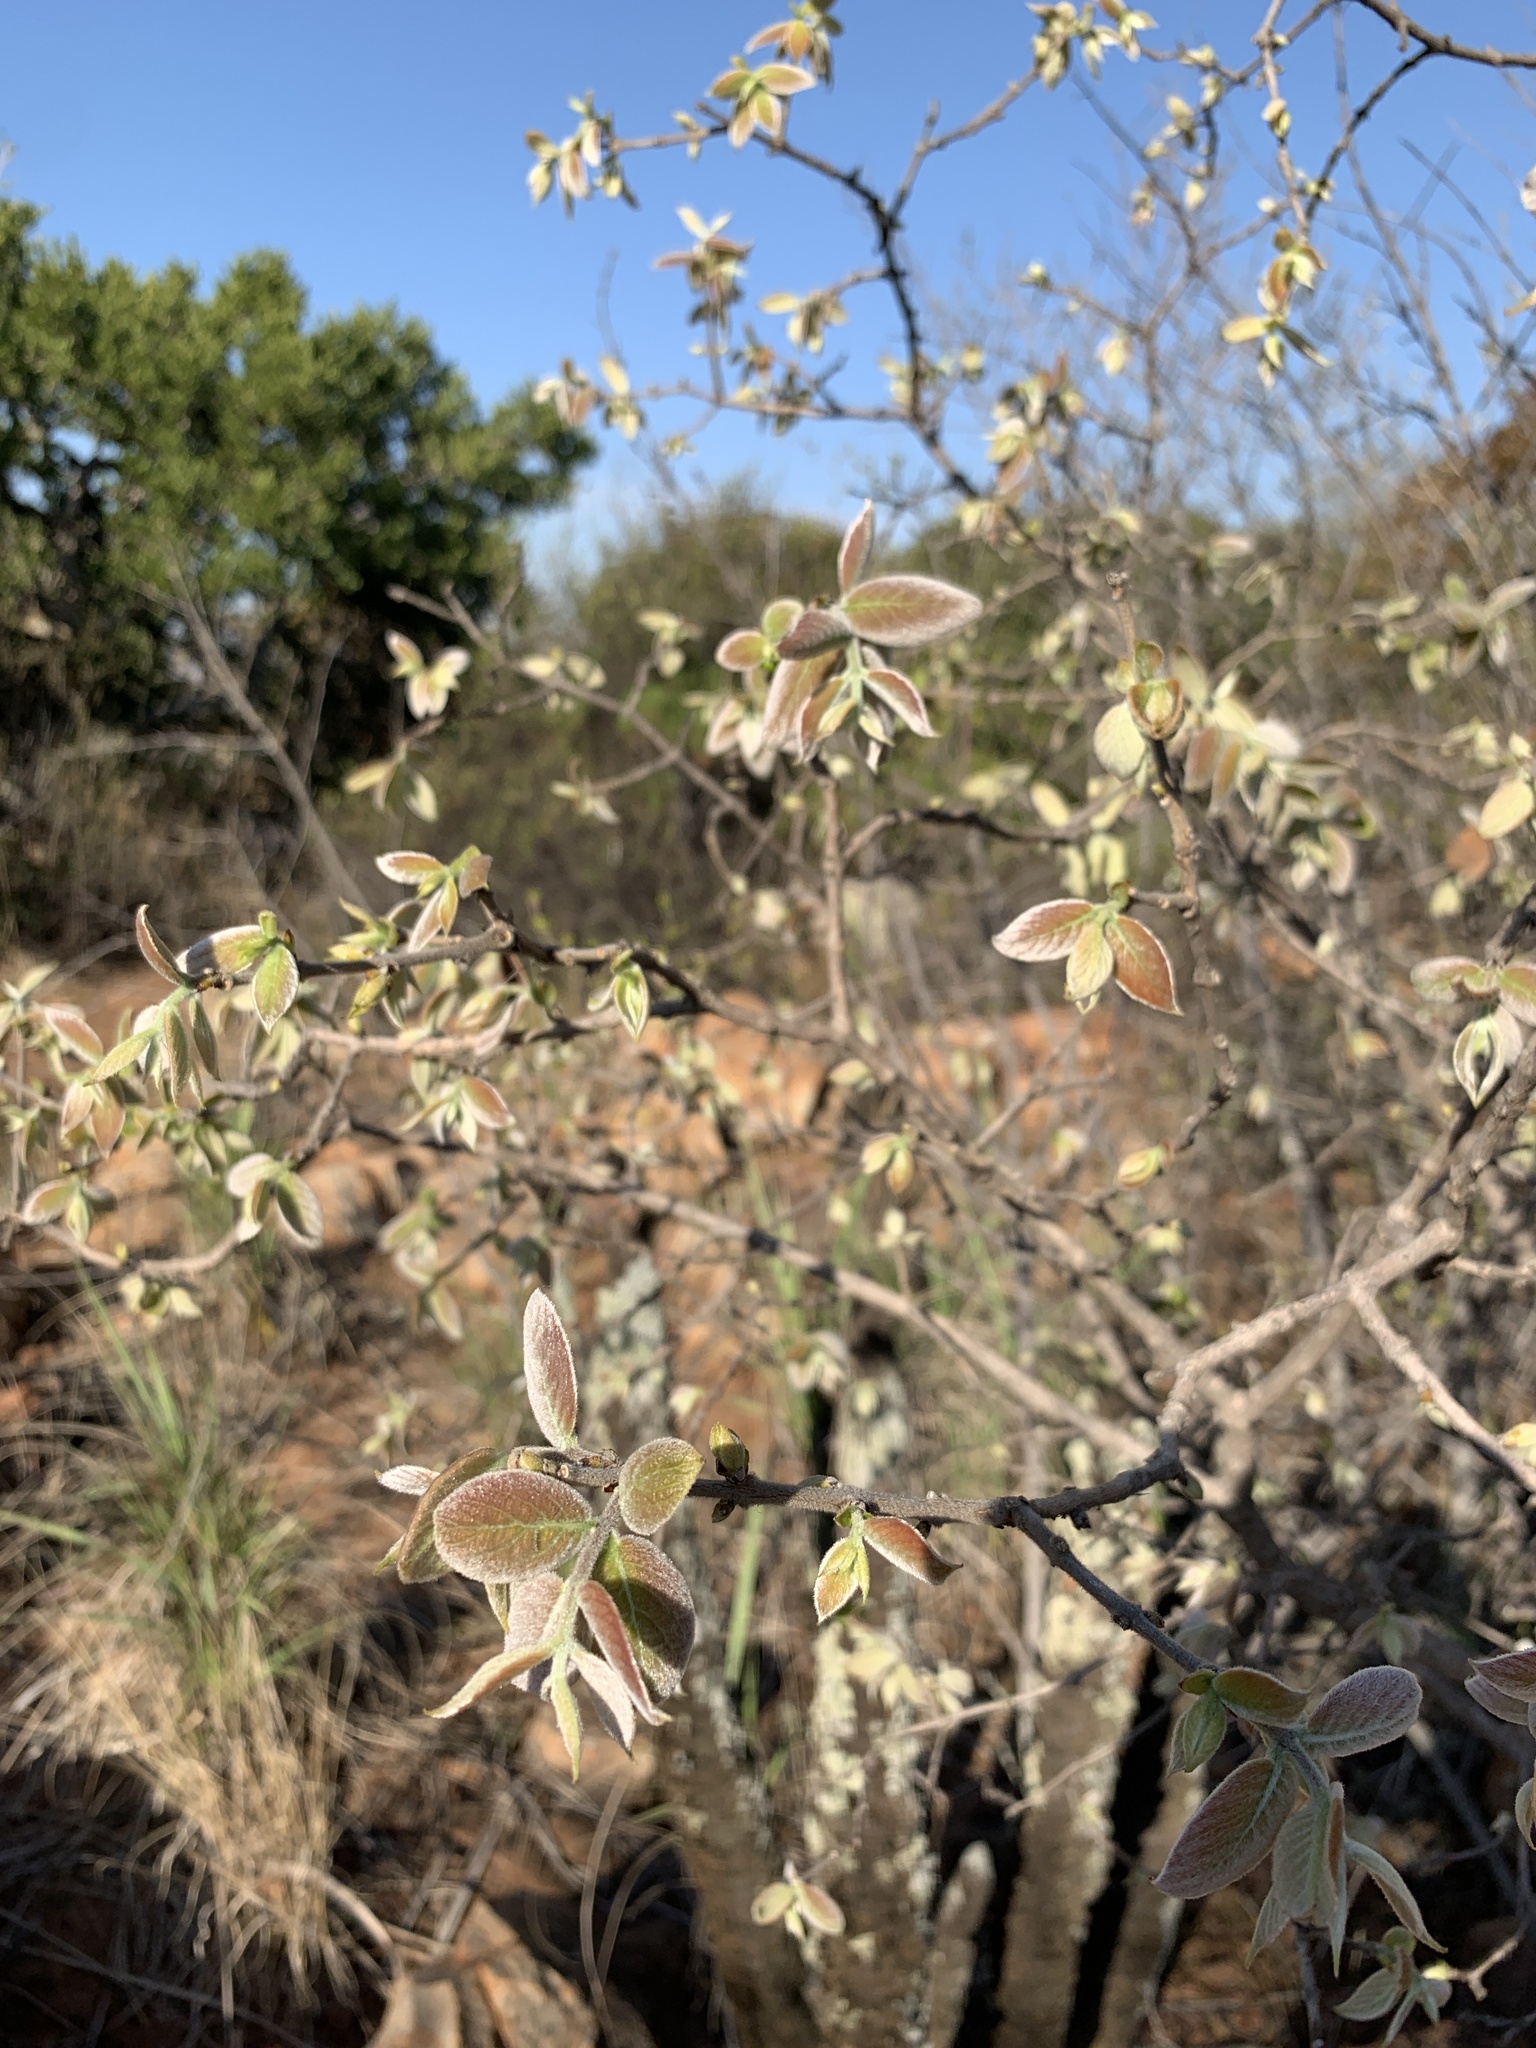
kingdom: Plantae
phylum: Tracheophyta
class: Magnoliopsida
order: Myrtales
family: Combretaceae
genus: Combretum
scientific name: Combretum molle
